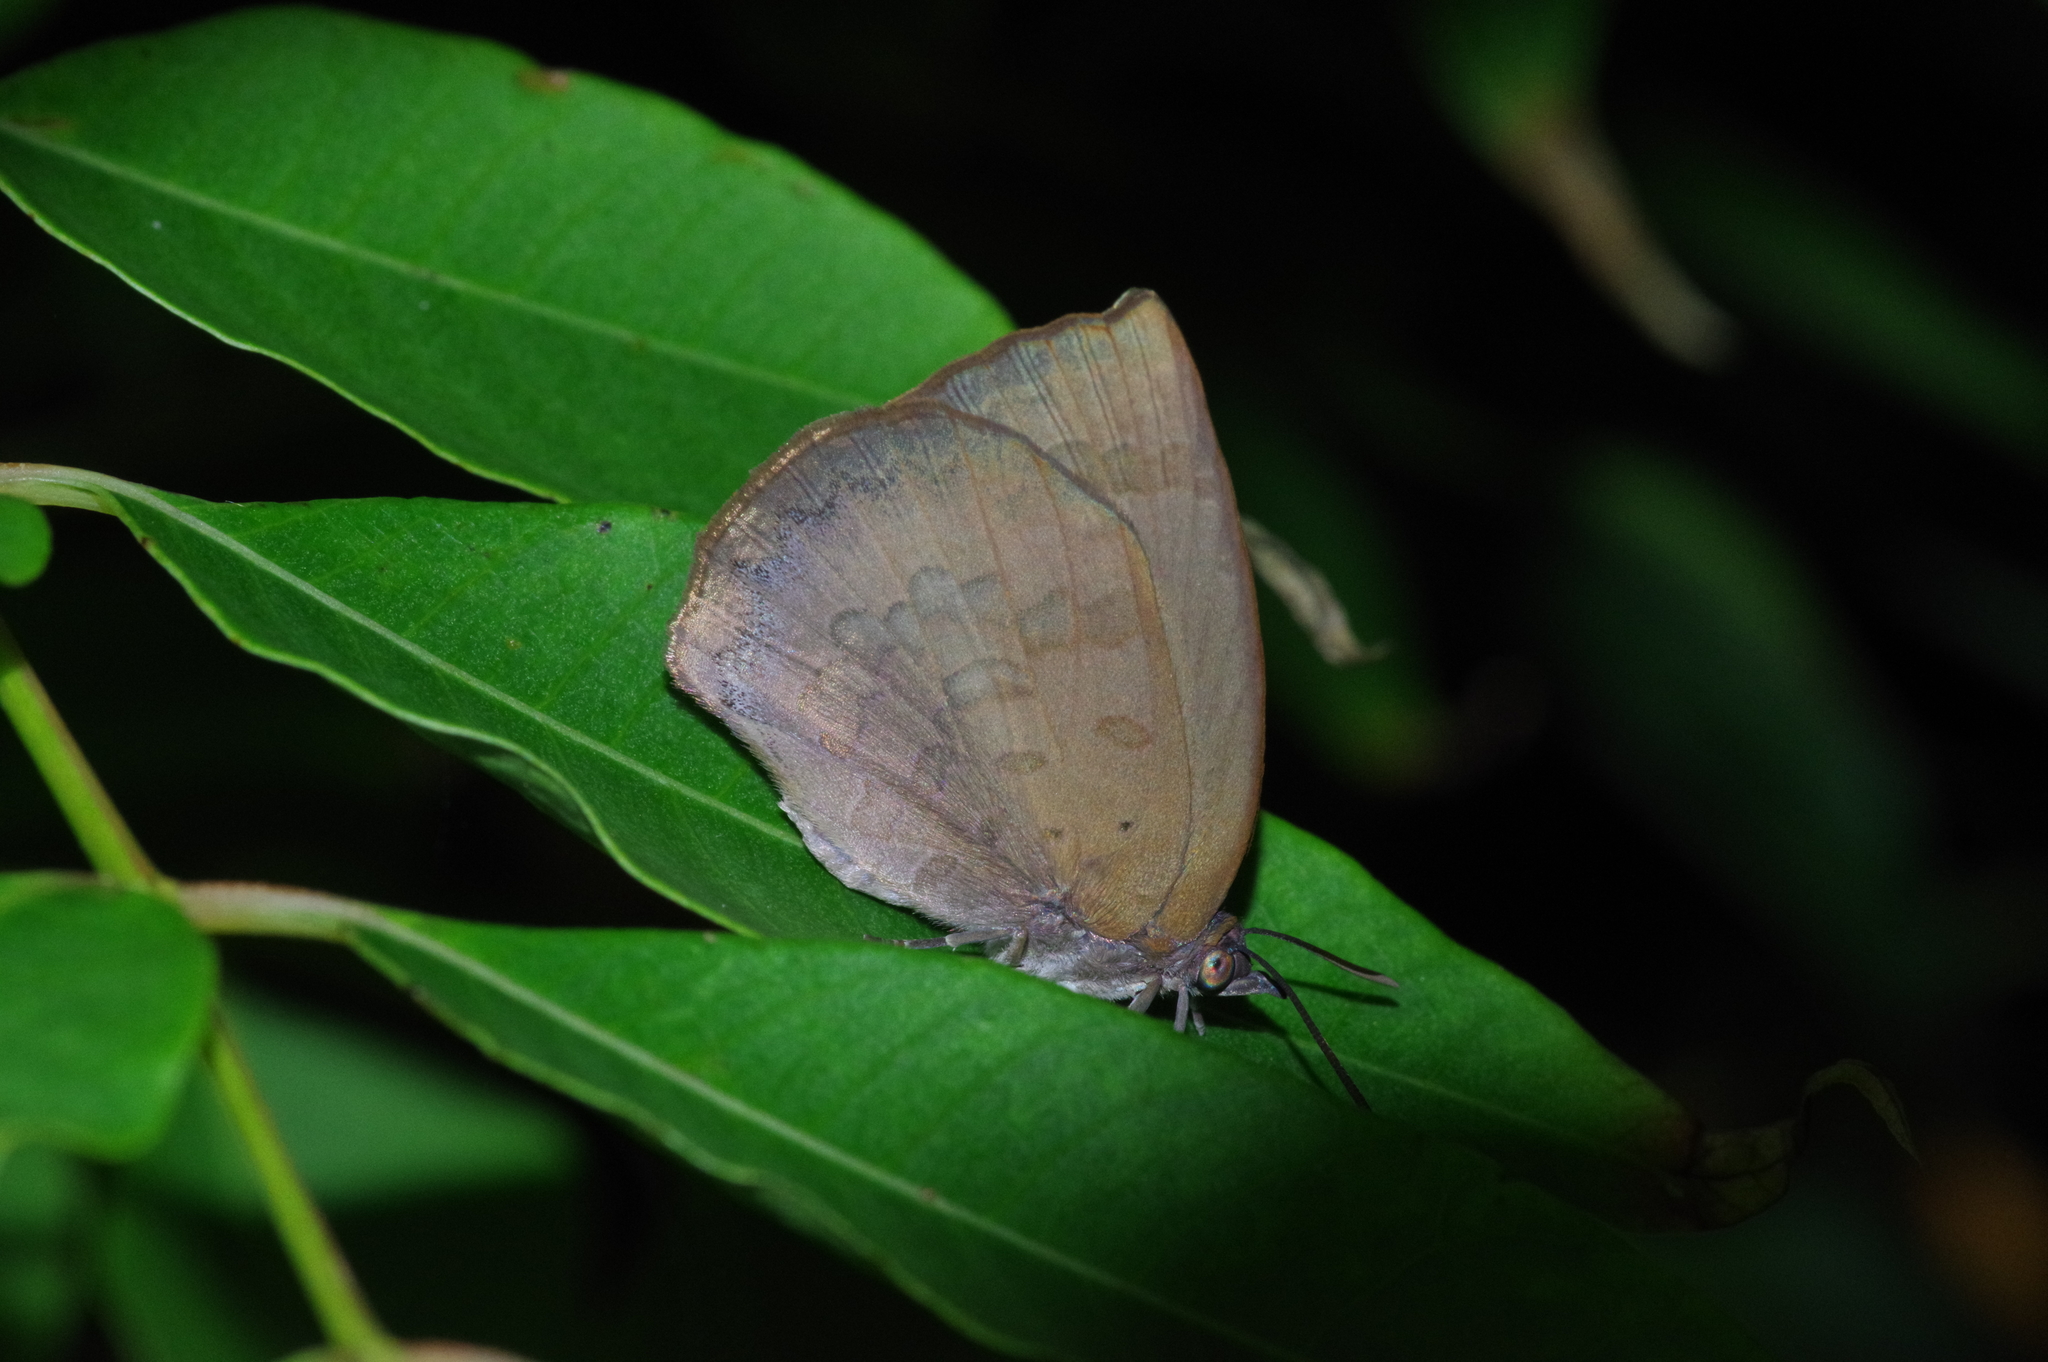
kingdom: Animalia
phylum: Arthropoda
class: Insecta
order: Lepidoptera
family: Lycaenidae
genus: Arhopala
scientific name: Arhopala japonica
